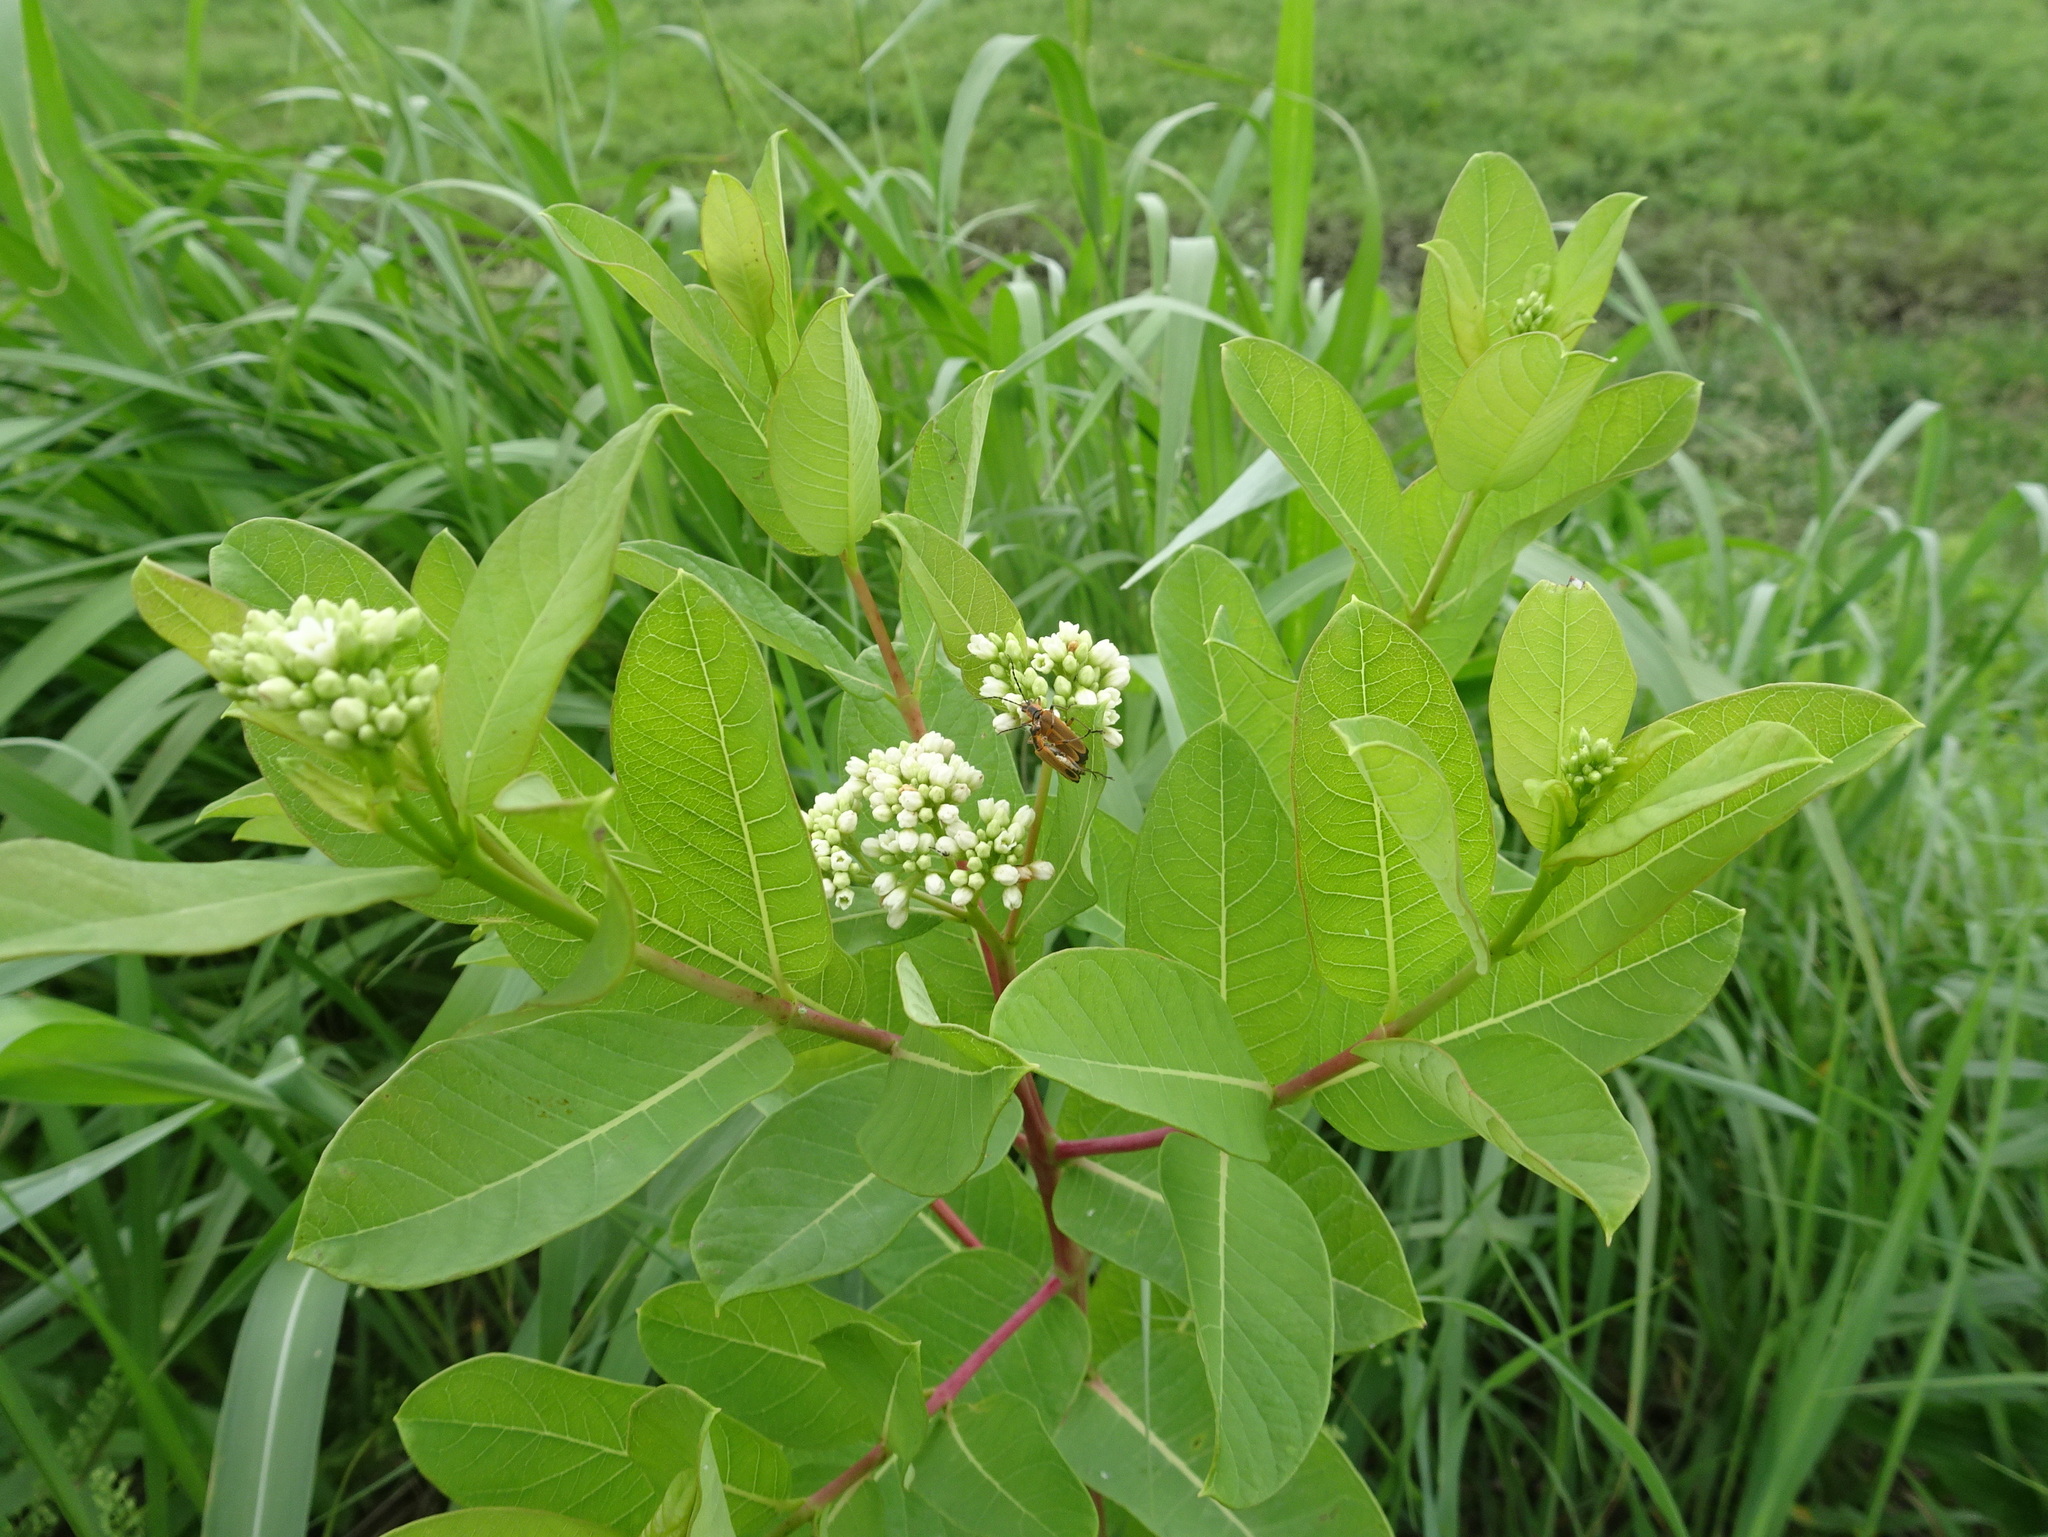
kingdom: Plantae
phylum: Tracheophyta
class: Magnoliopsida
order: Gentianales
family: Apocynaceae
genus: Apocynum
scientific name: Apocynum cannabinum
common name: Hemp dogbane
